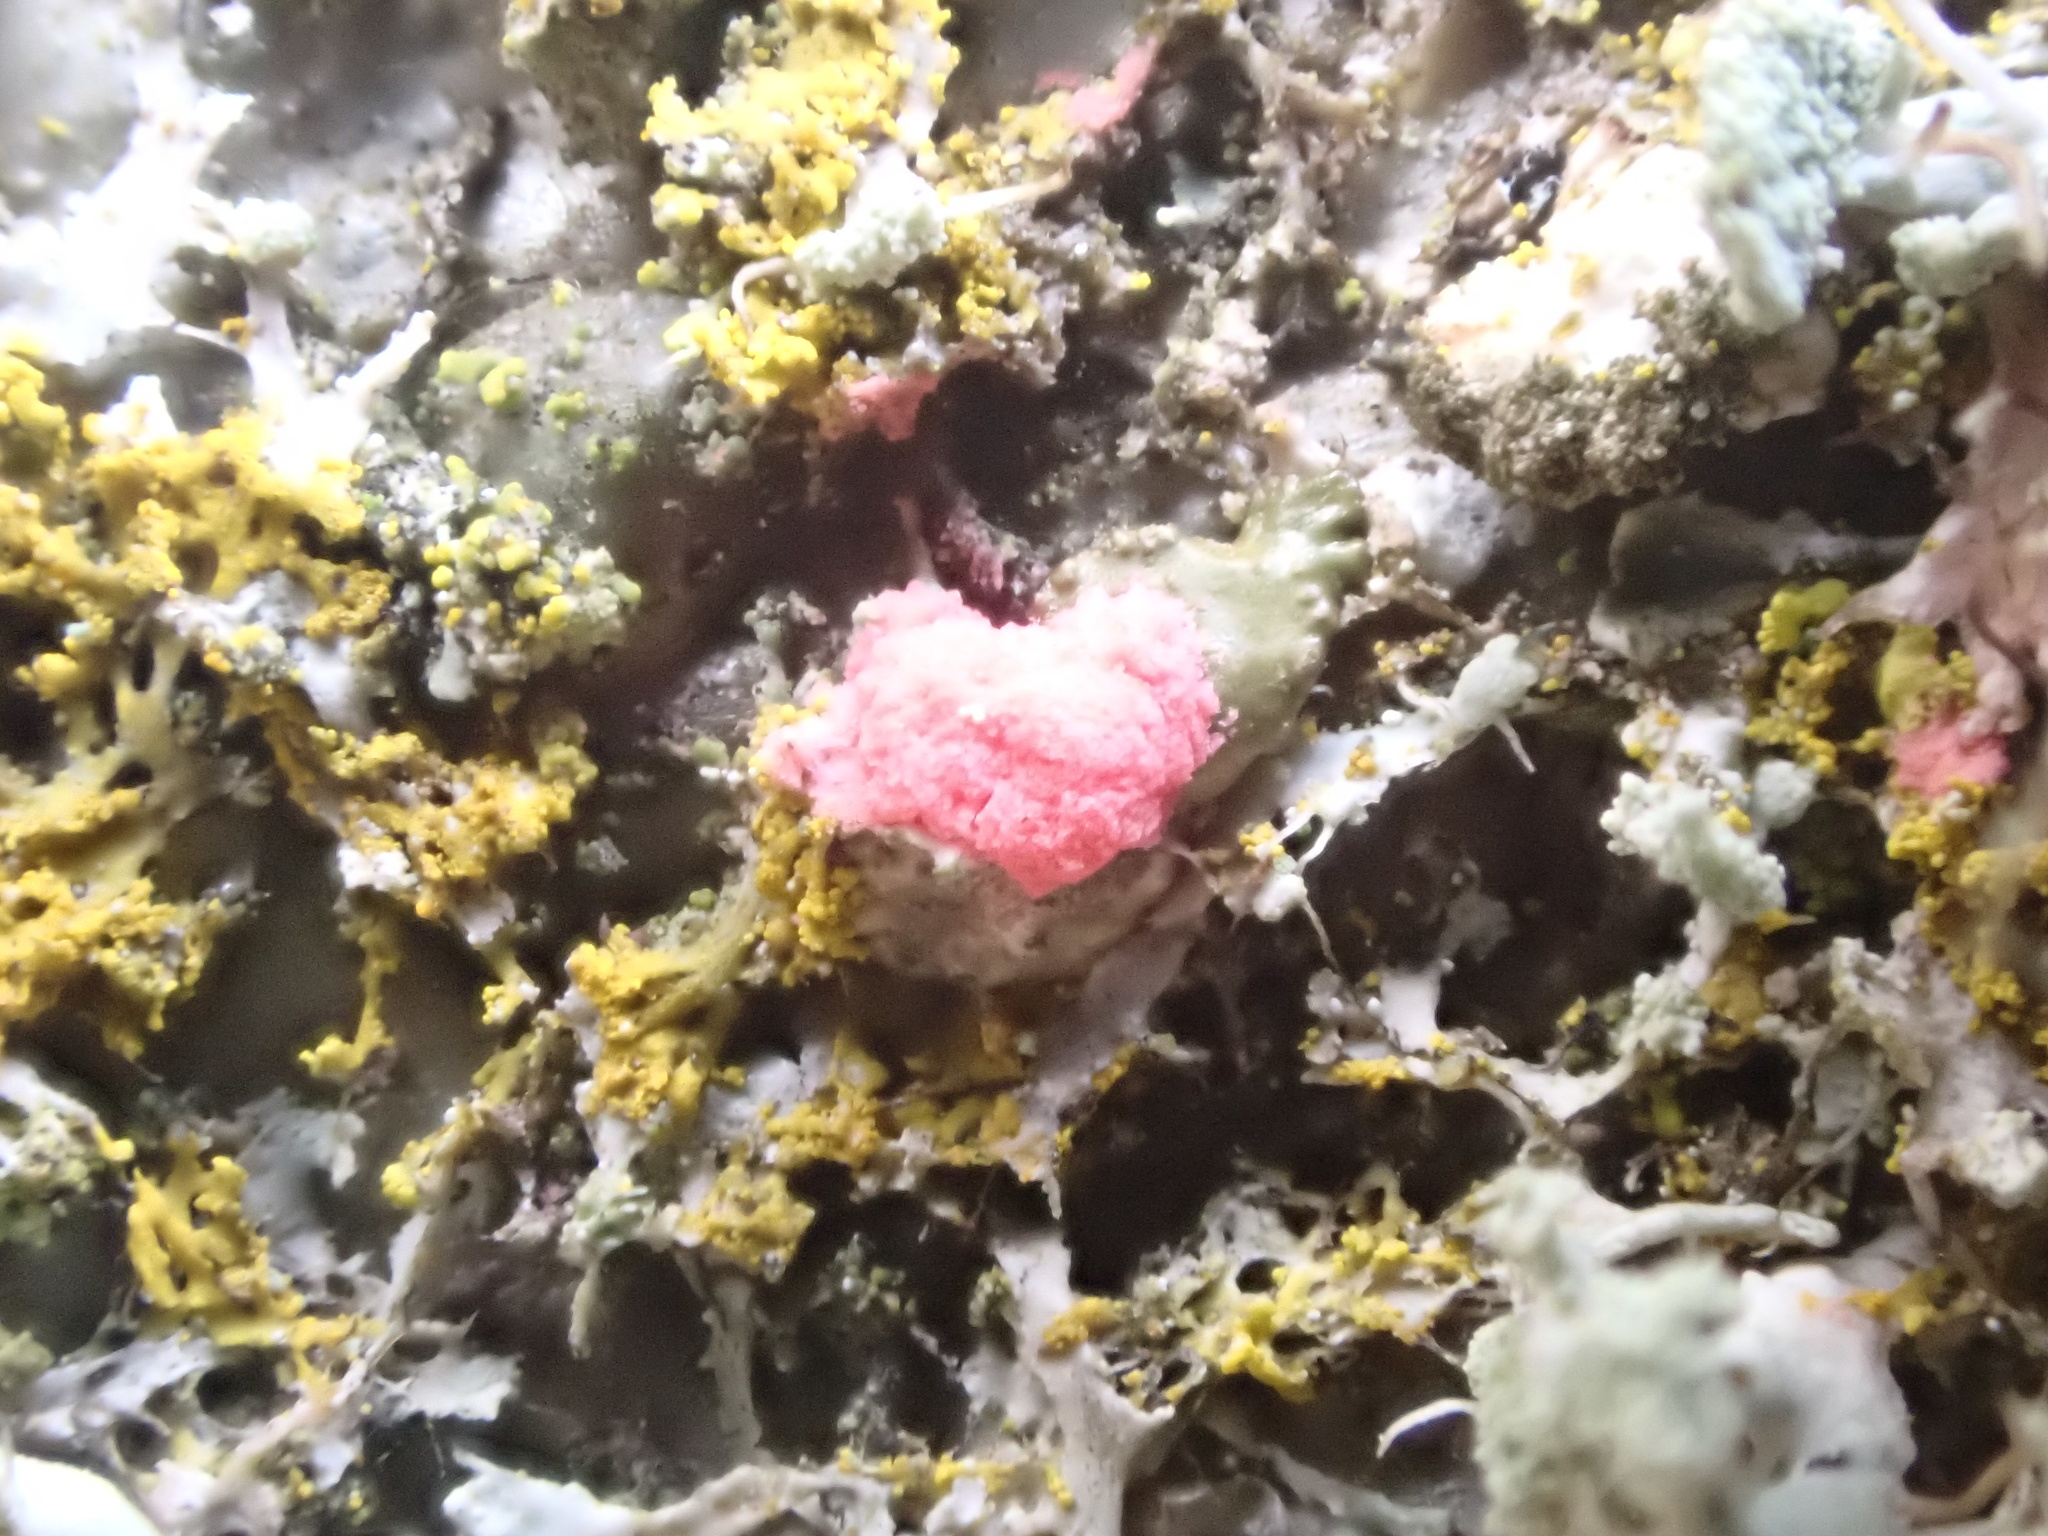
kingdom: Fungi
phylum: Ascomycota
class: Sordariomycetes
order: Hypocreales
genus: Illosporiopsis
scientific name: Illosporiopsis christiansenii
